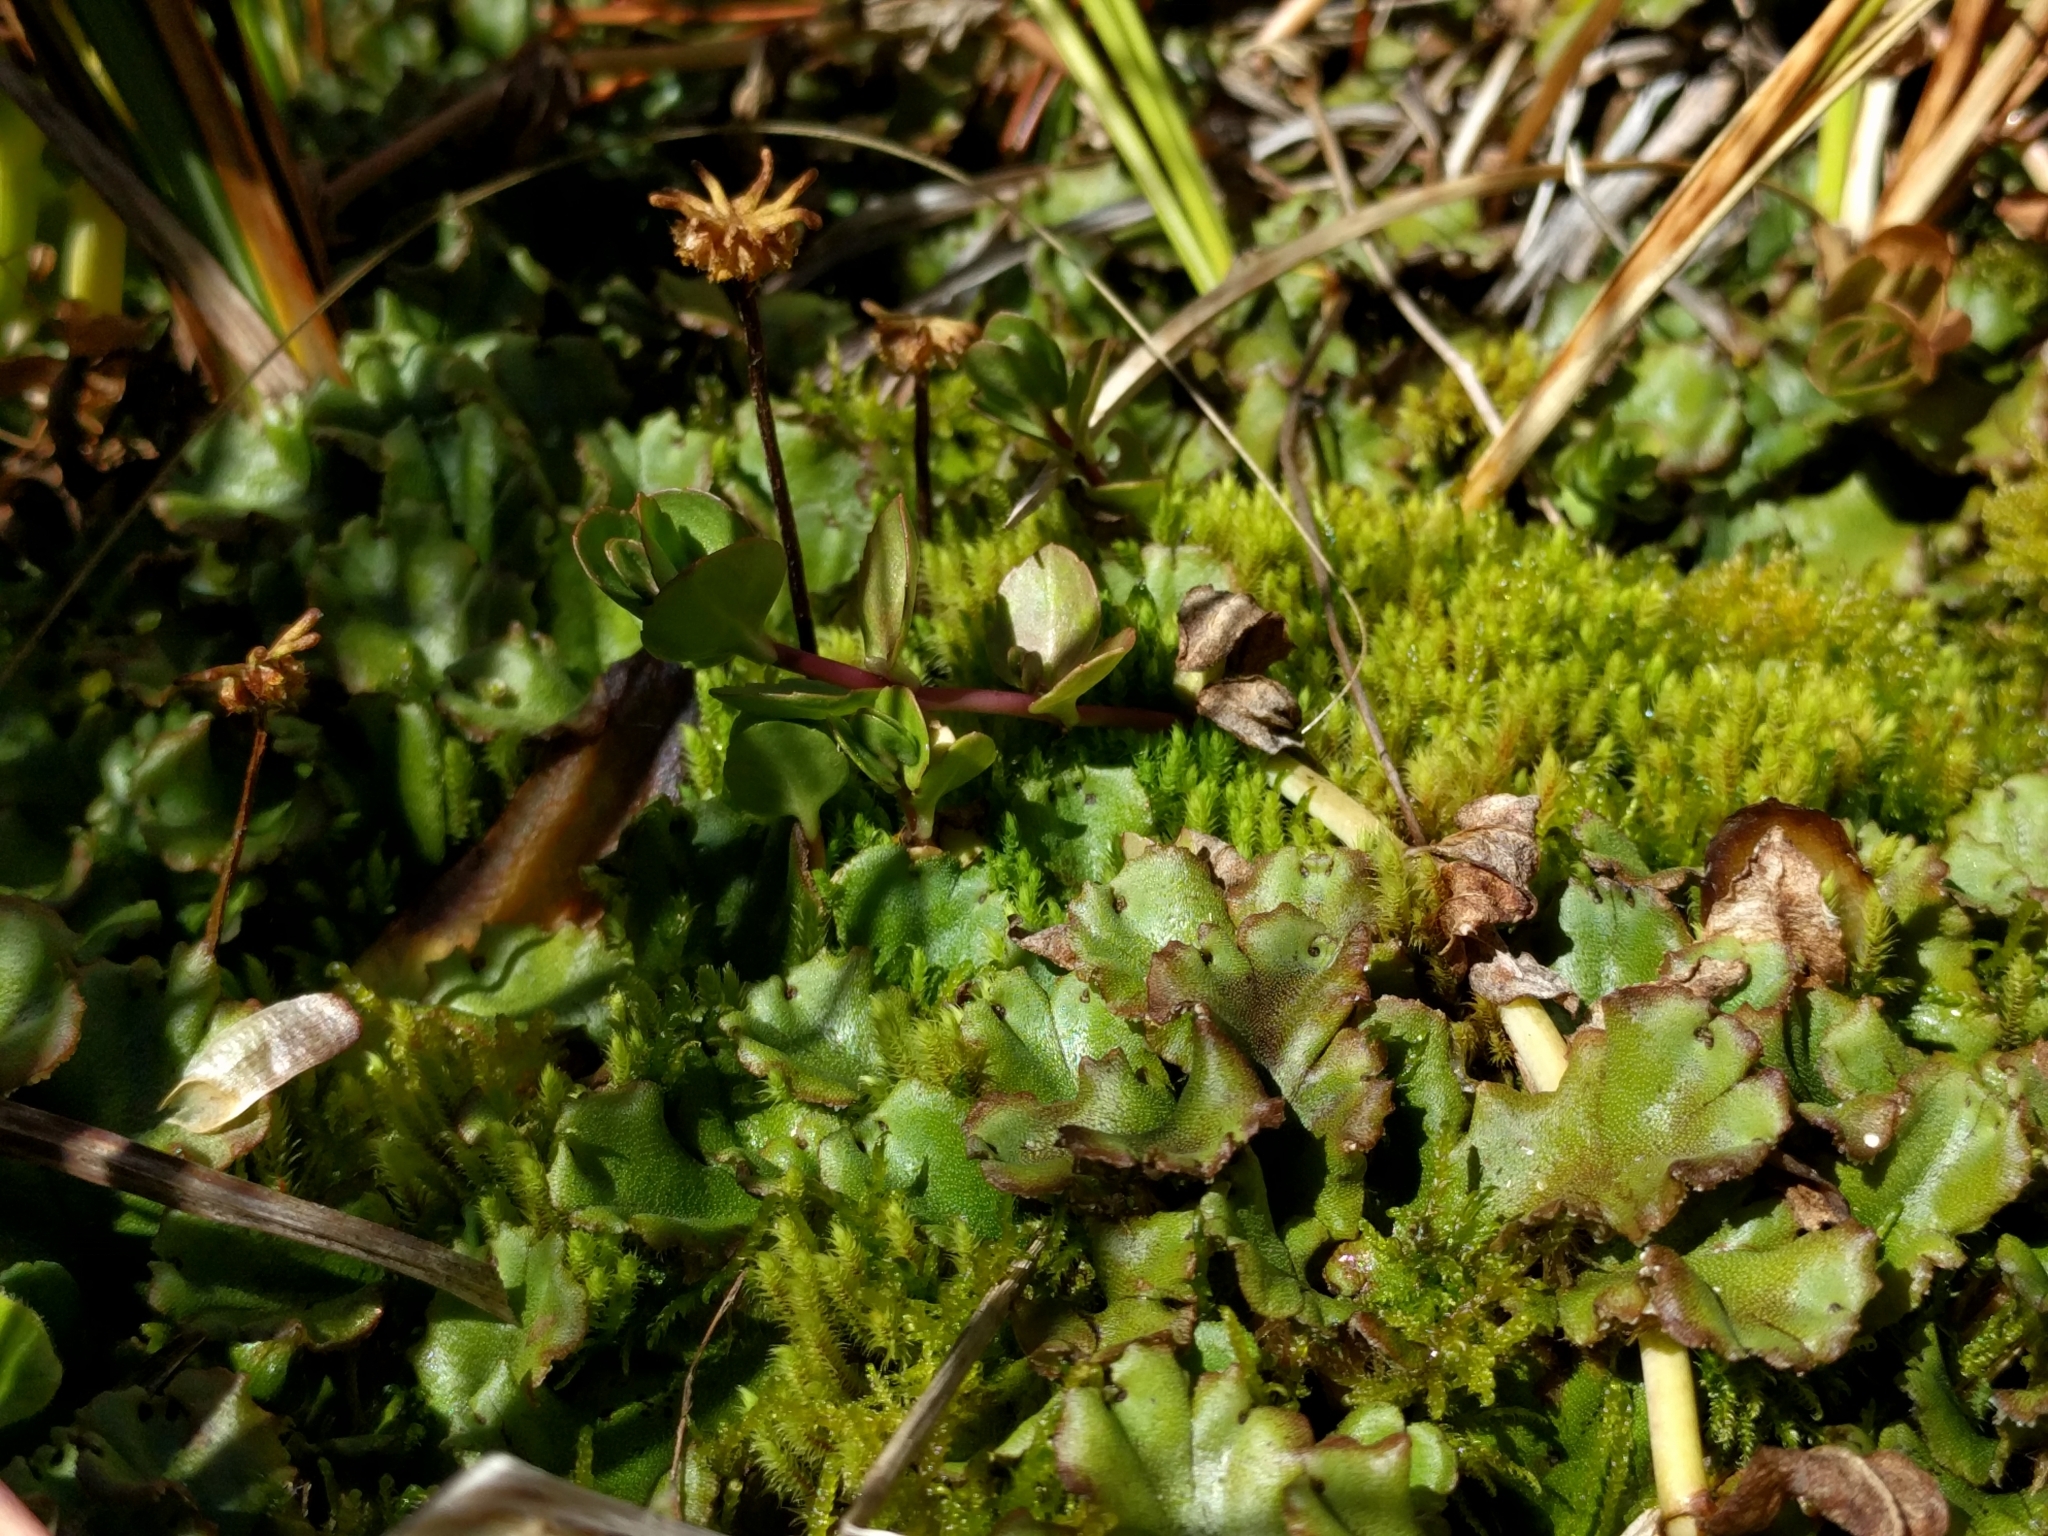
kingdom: Plantae
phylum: Marchantiophyta
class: Marchantiopsida
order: Marchantiales
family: Marchantiaceae
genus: Marchantia
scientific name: Marchantia polymorpha
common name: Common liverwort
